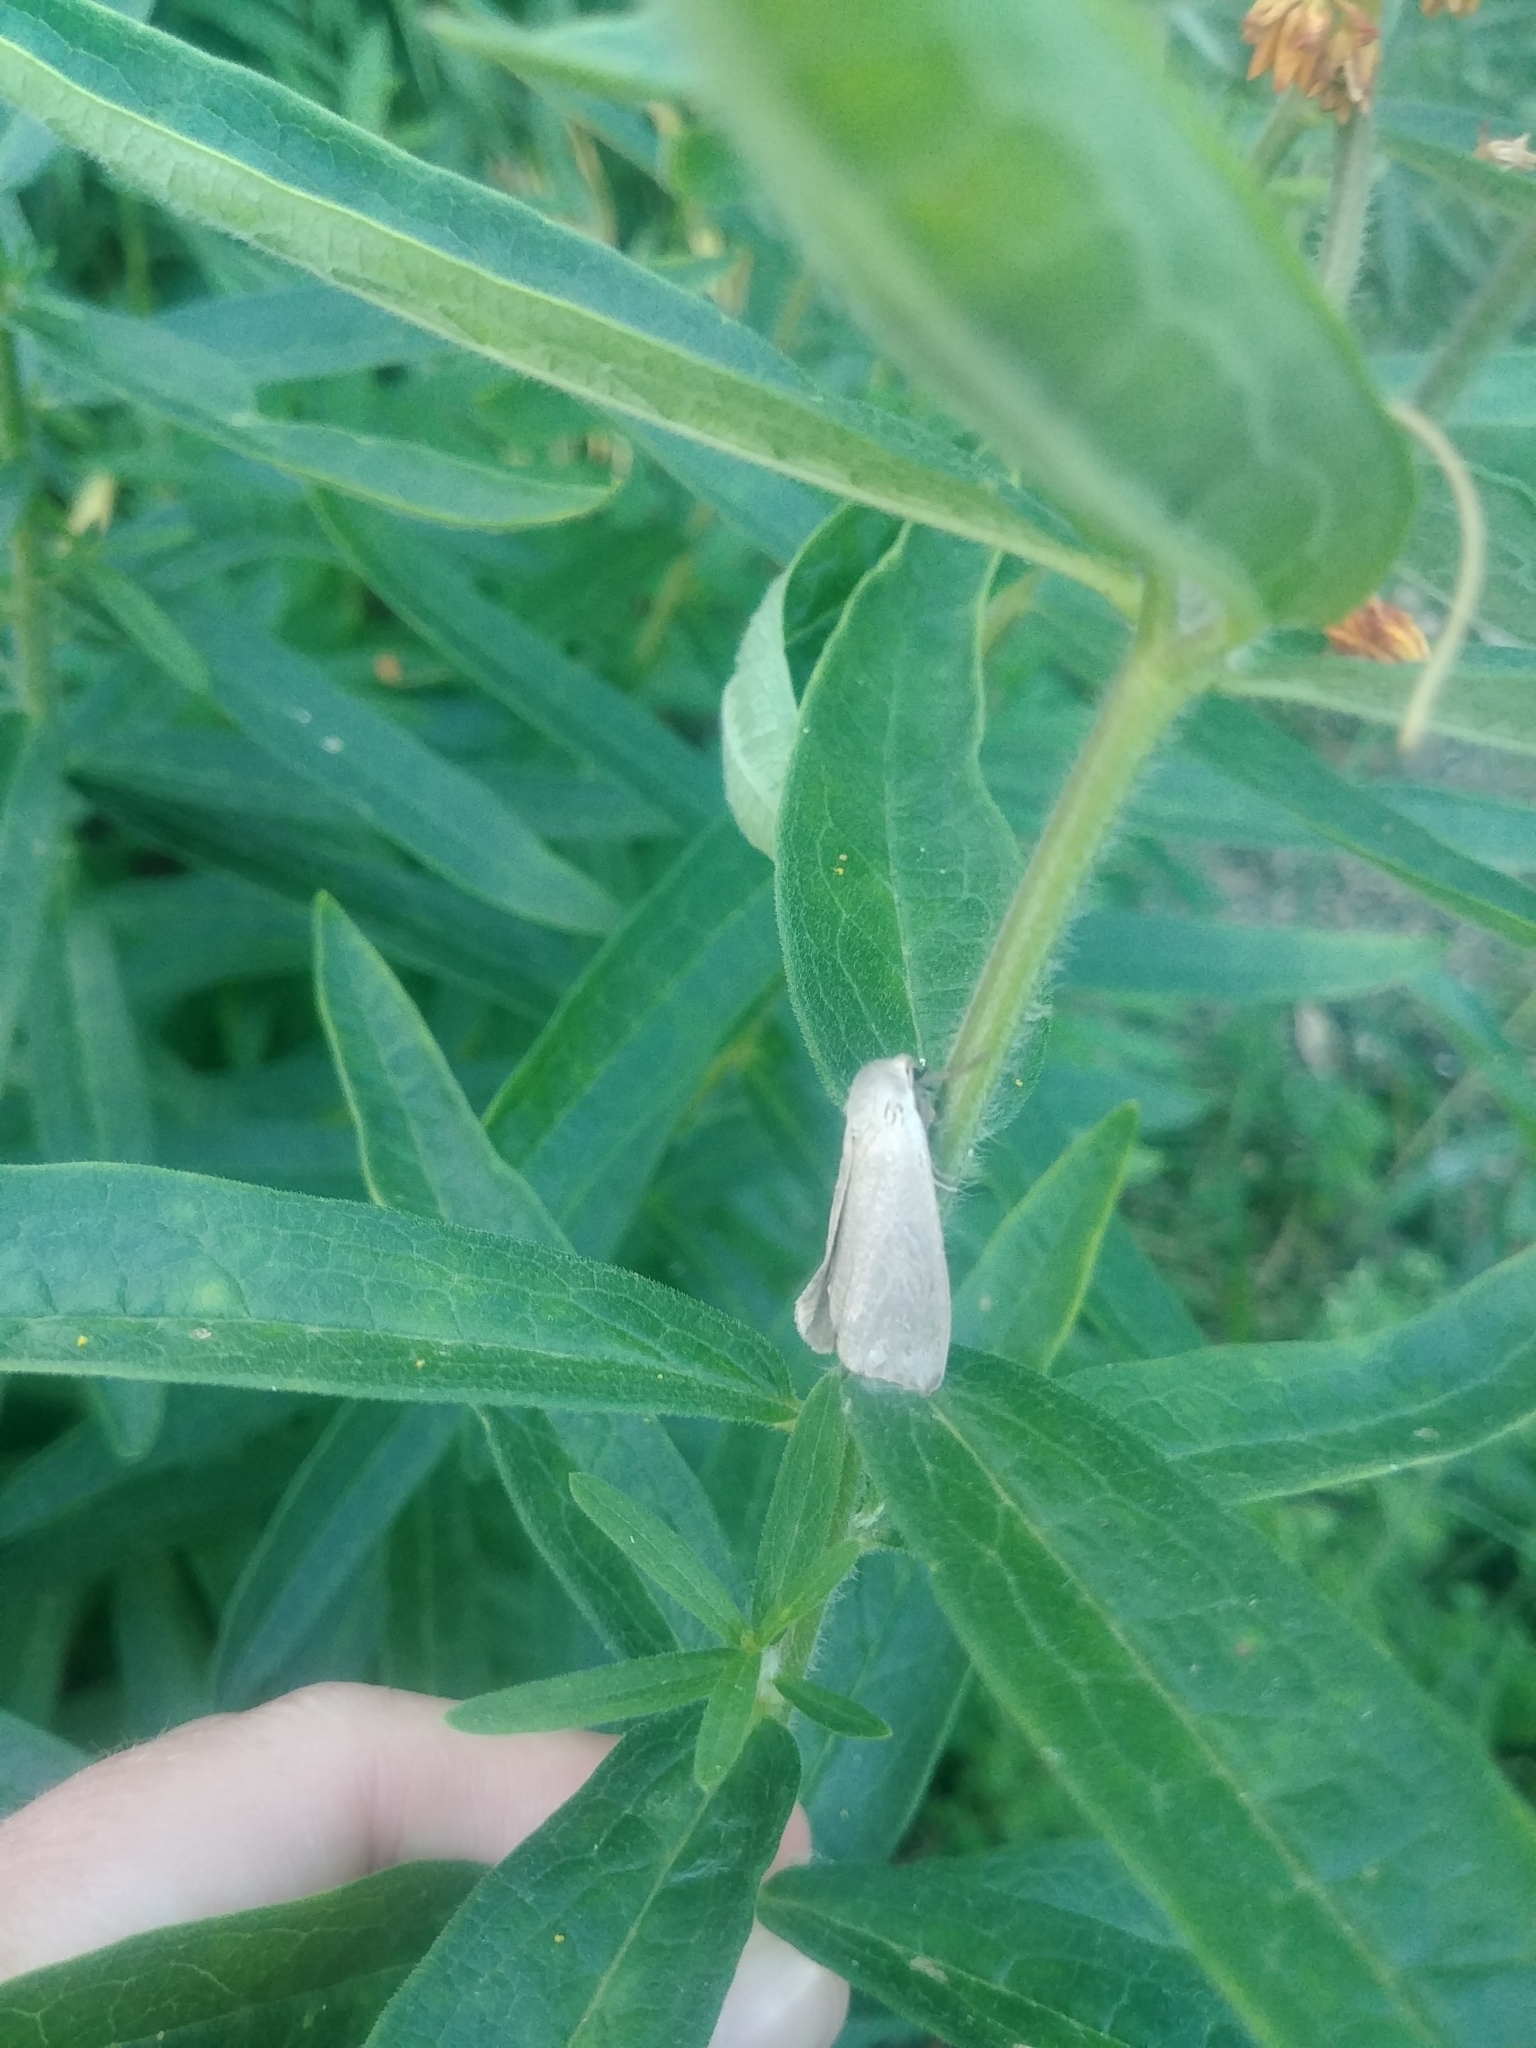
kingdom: Animalia
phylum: Arthropoda
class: Insecta
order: Lepidoptera
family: Erebidae
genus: Euchaetes
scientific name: Euchaetes egle
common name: Milkweed tussock moth
